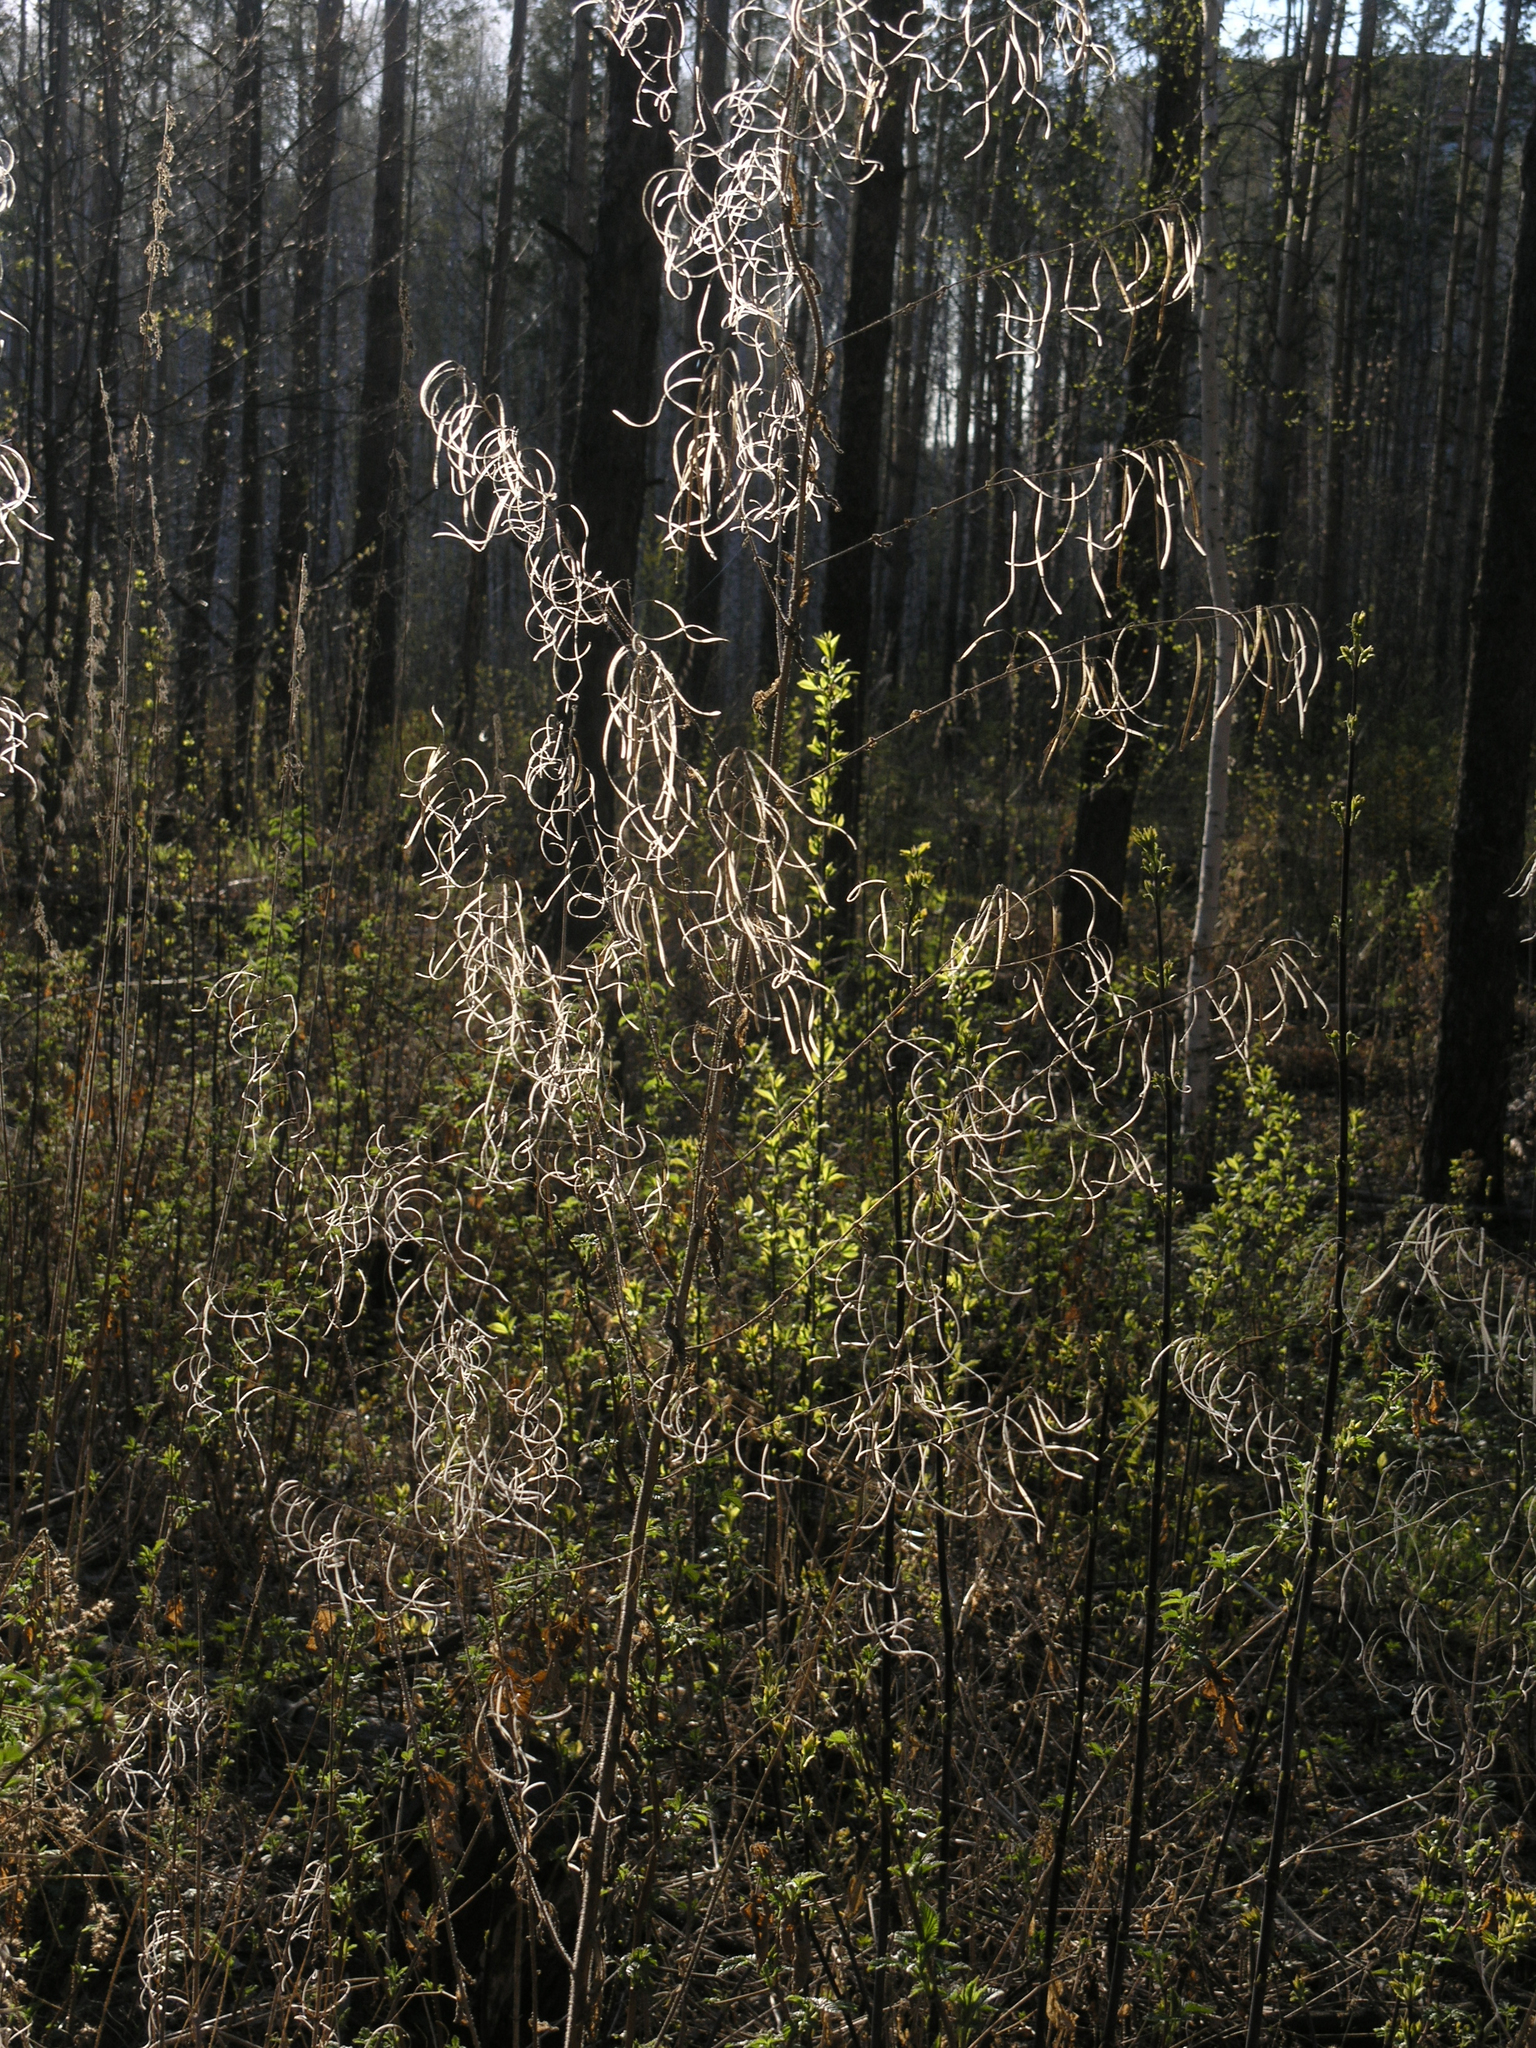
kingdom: Plantae
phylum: Tracheophyta
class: Magnoliopsida
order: Brassicales
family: Brassicaceae
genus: Catolobus
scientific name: Catolobus pendulus
